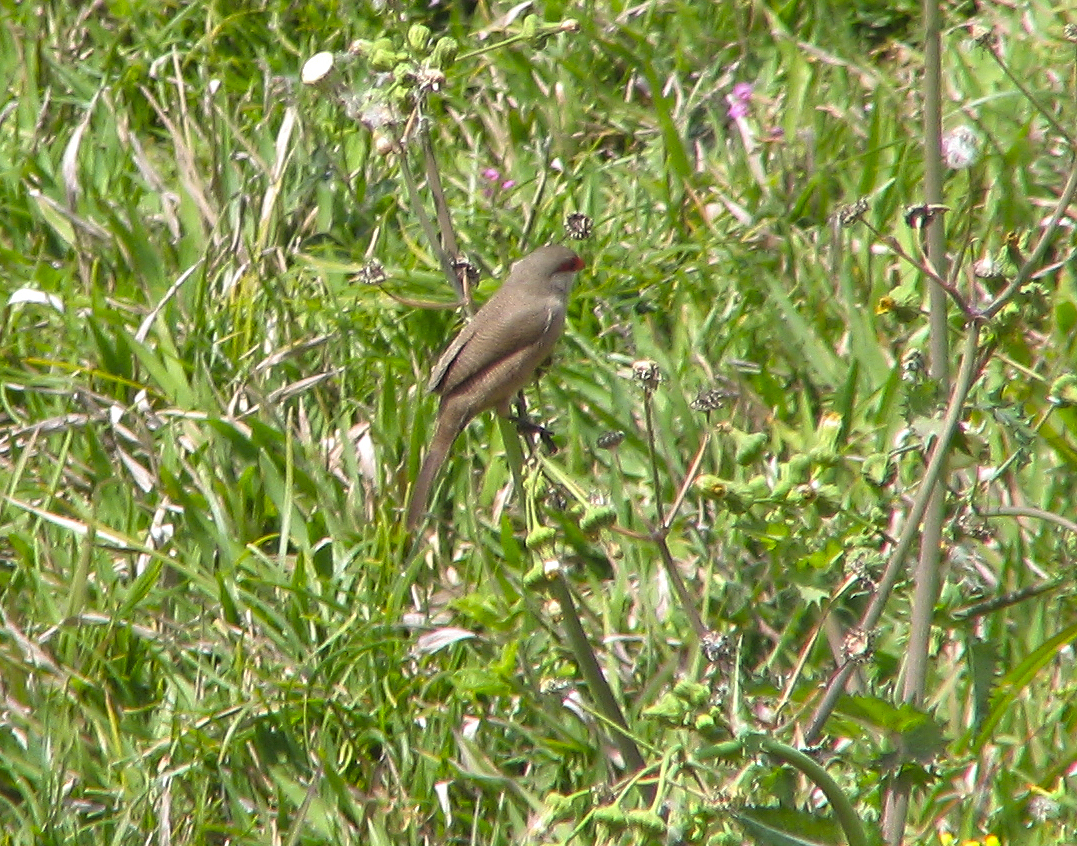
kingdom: Animalia
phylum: Chordata
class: Aves
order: Passeriformes
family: Estrildidae
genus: Estrilda
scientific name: Estrilda astrild
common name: Common waxbill
